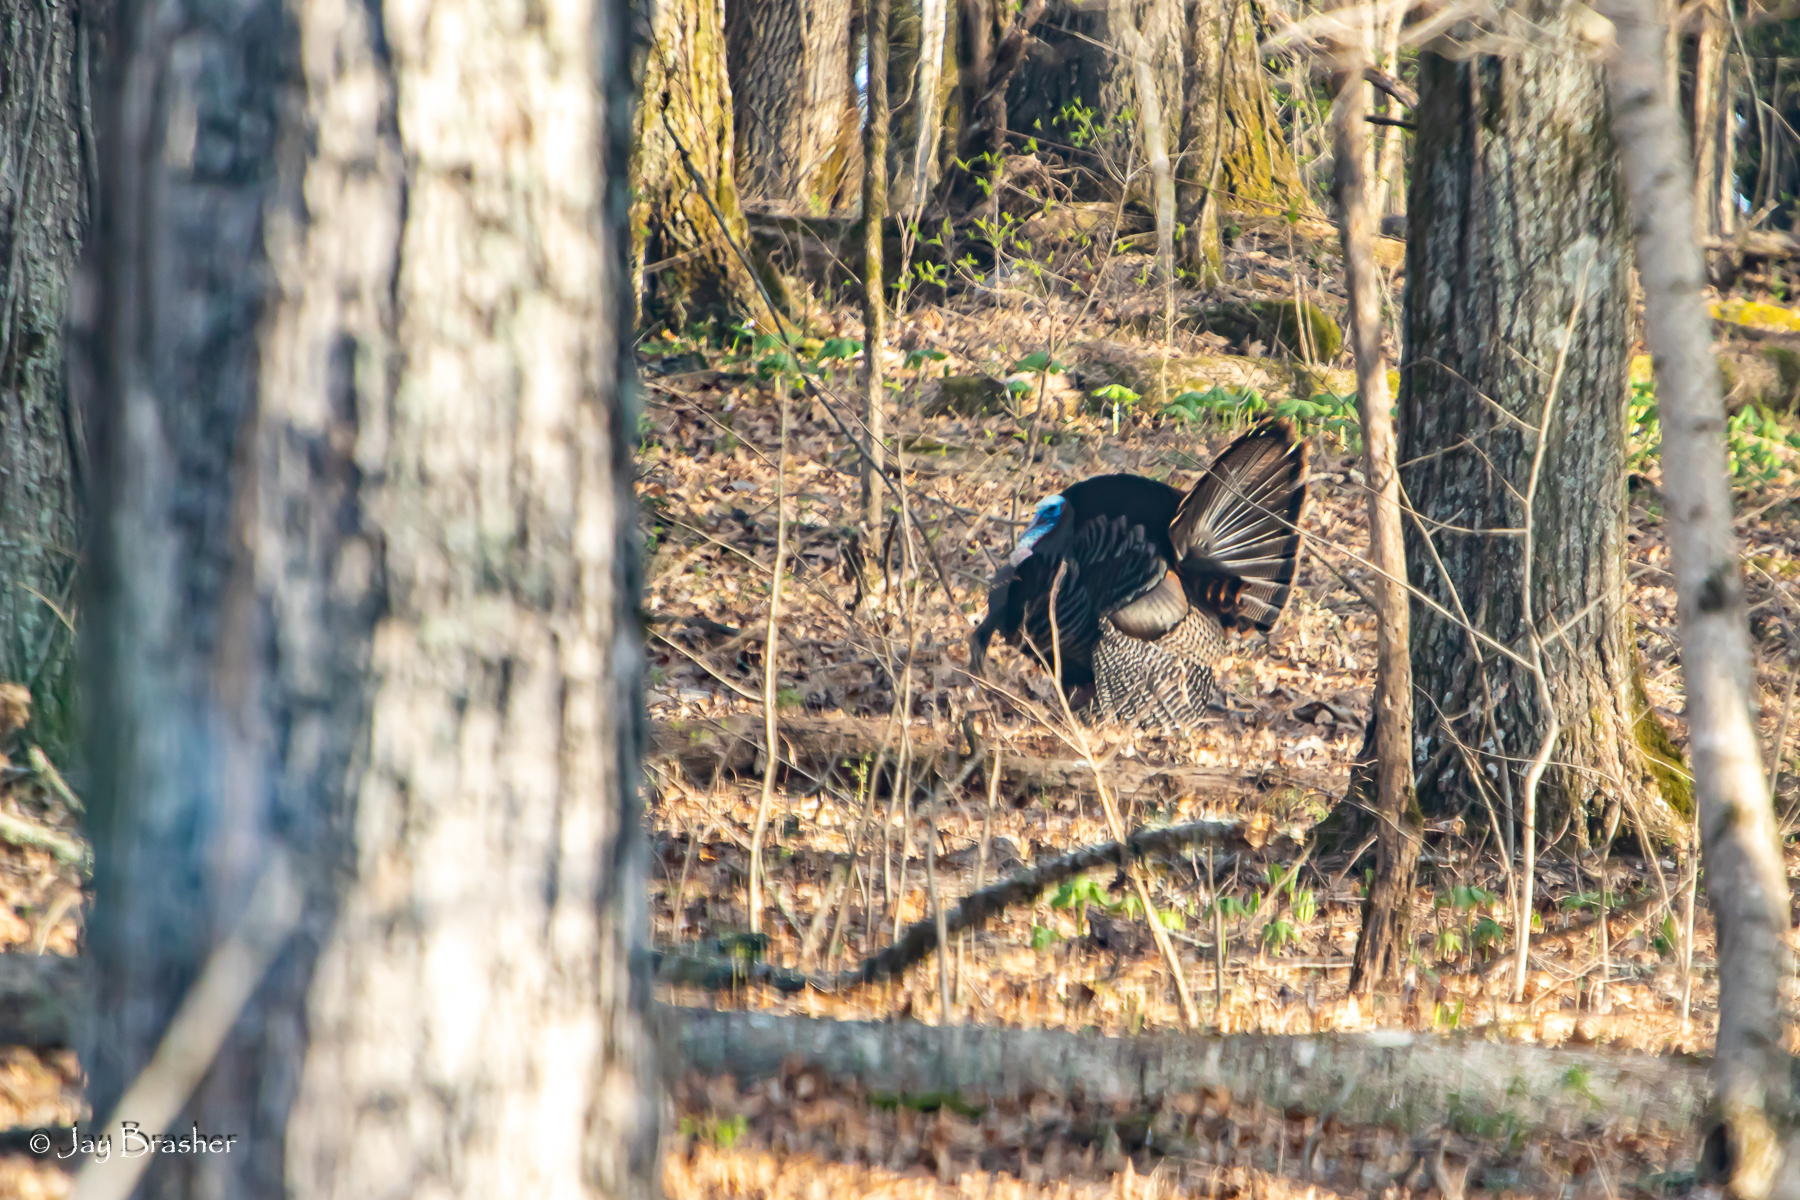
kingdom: Animalia
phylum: Chordata
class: Aves
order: Galliformes
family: Phasianidae
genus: Meleagris
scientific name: Meleagris gallopavo
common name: Wild turkey
